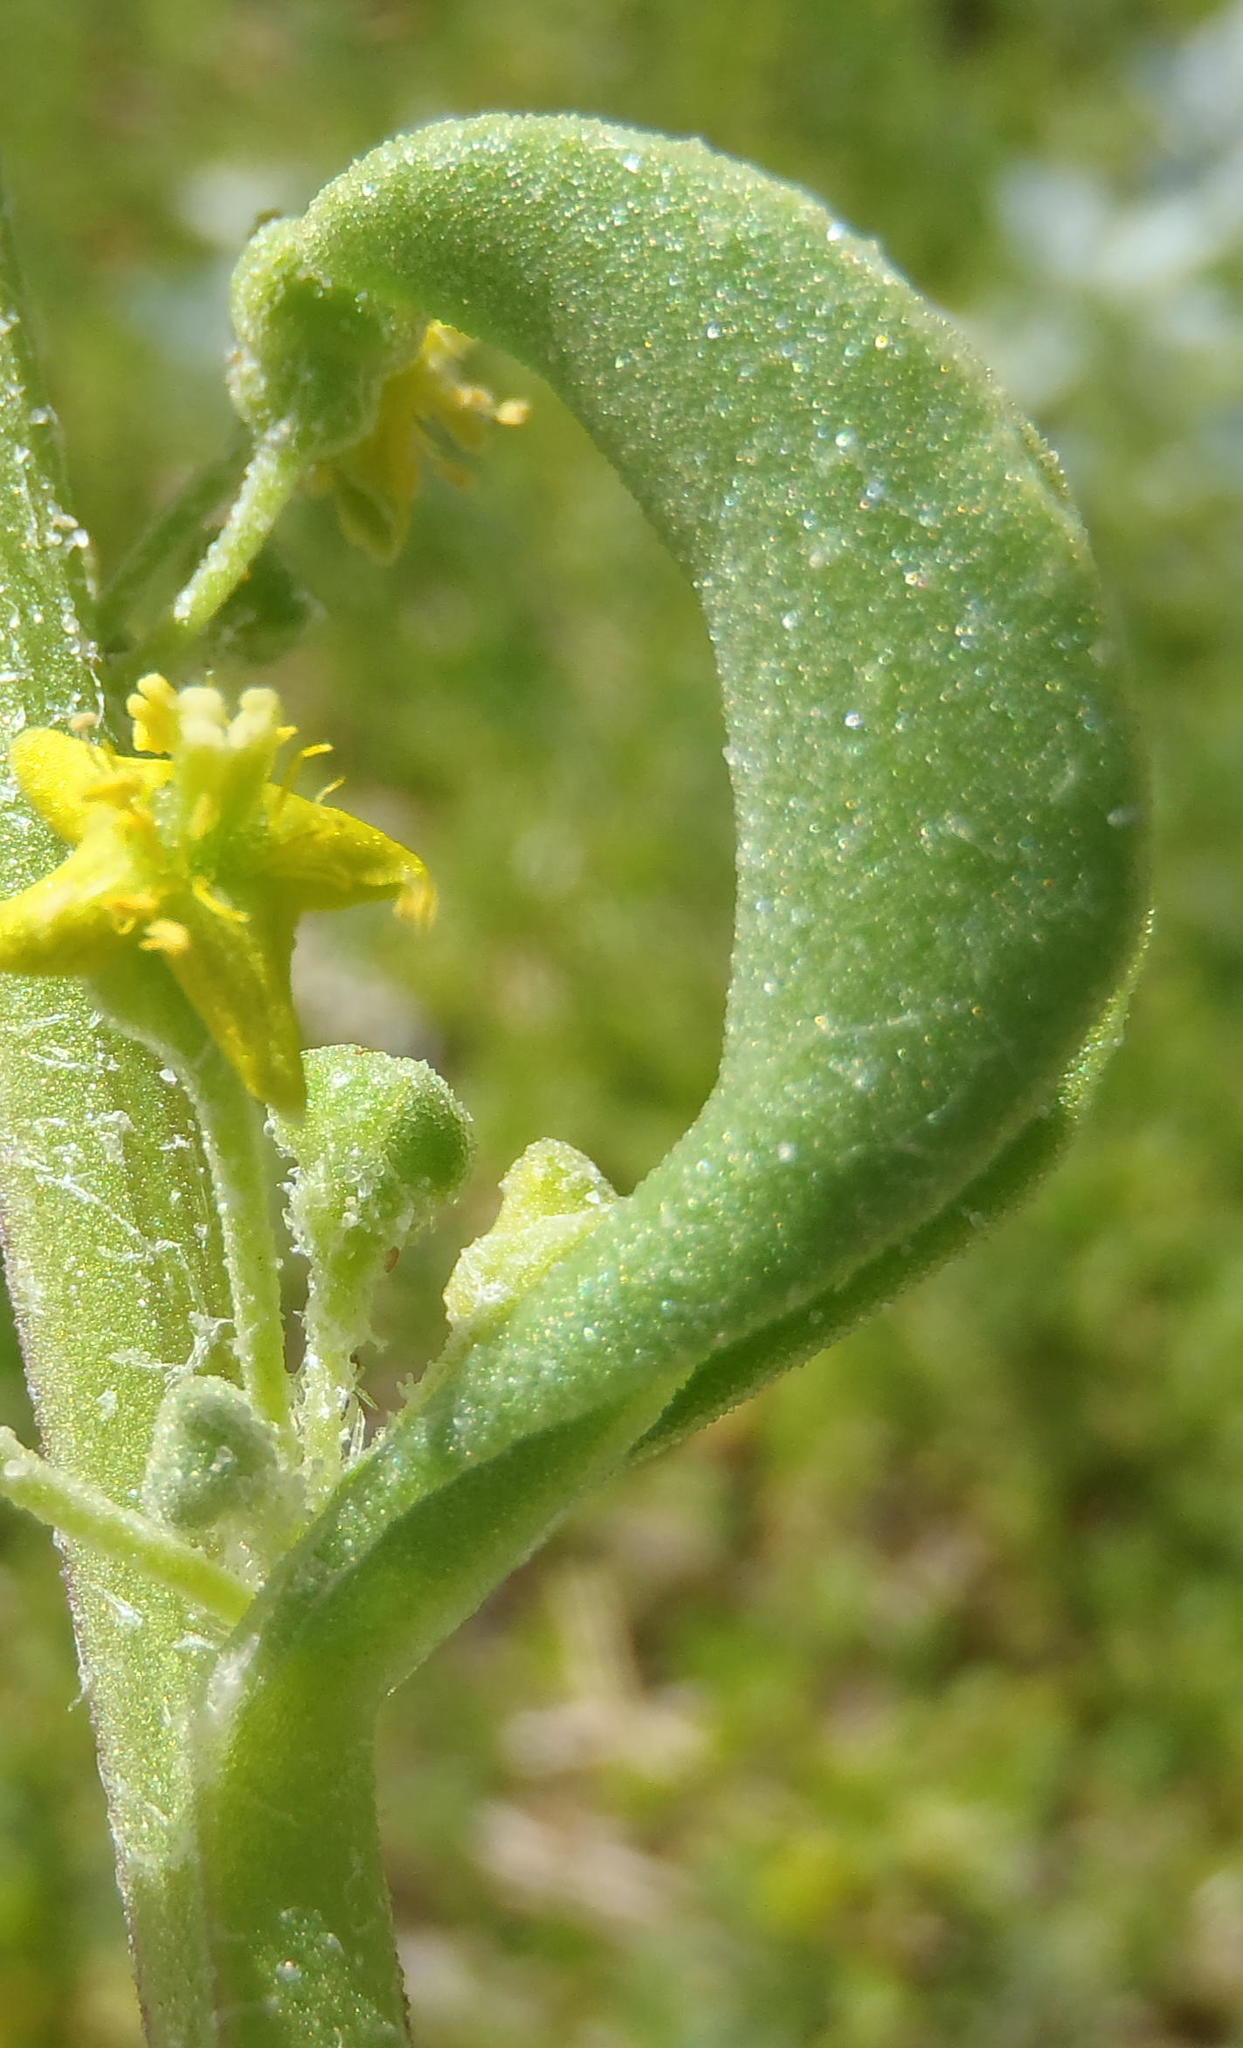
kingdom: Plantae
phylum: Tracheophyta
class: Magnoliopsida
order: Caryophyllales
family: Aizoaceae
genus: Tetragonia
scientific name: Tetragonia decumbens
